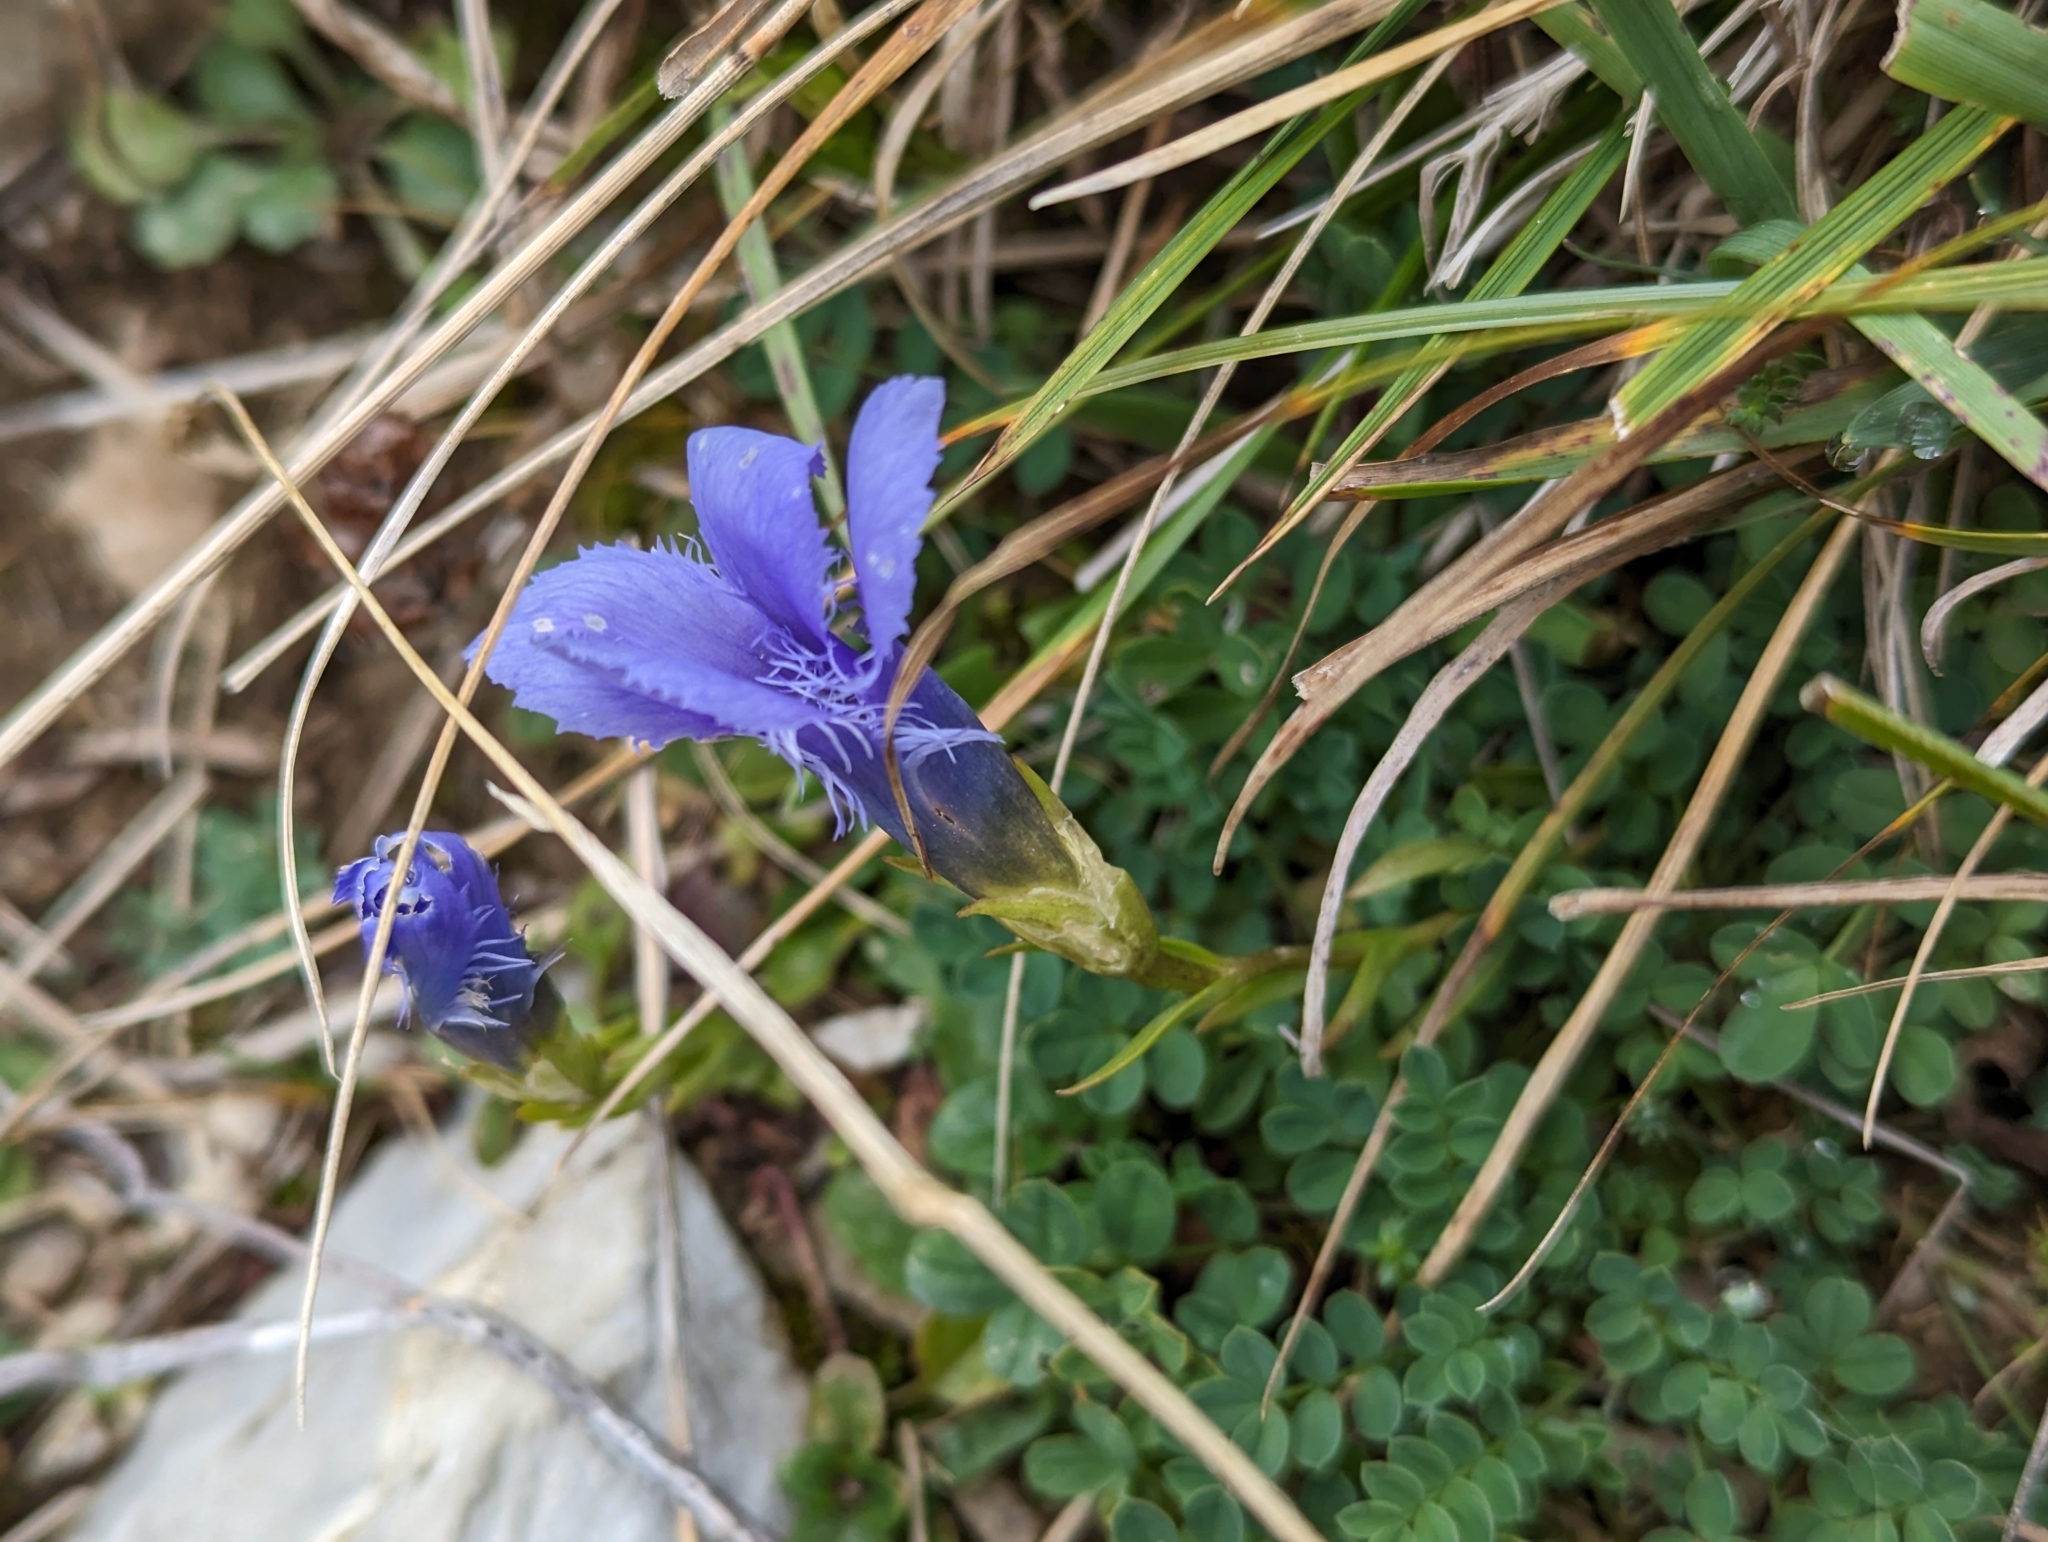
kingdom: Plantae
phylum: Tracheophyta
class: Magnoliopsida
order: Gentianales
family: Gentianaceae
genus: Gentianopsis
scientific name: Gentianopsis ciliata
